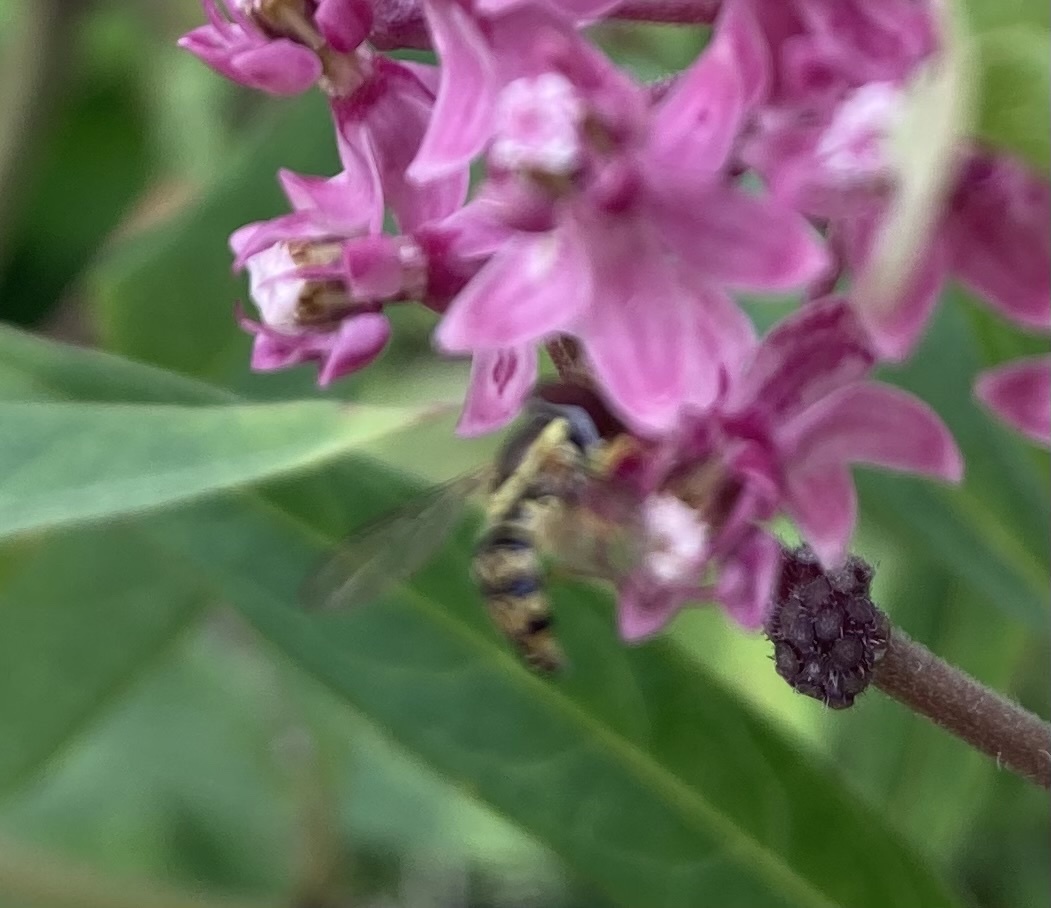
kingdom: Animalia
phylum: Arthropoda
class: Insecta
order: Diptera
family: Syrphidae
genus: Toxomerus
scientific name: Toxomerus geminatus
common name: Eastern calligrapher
